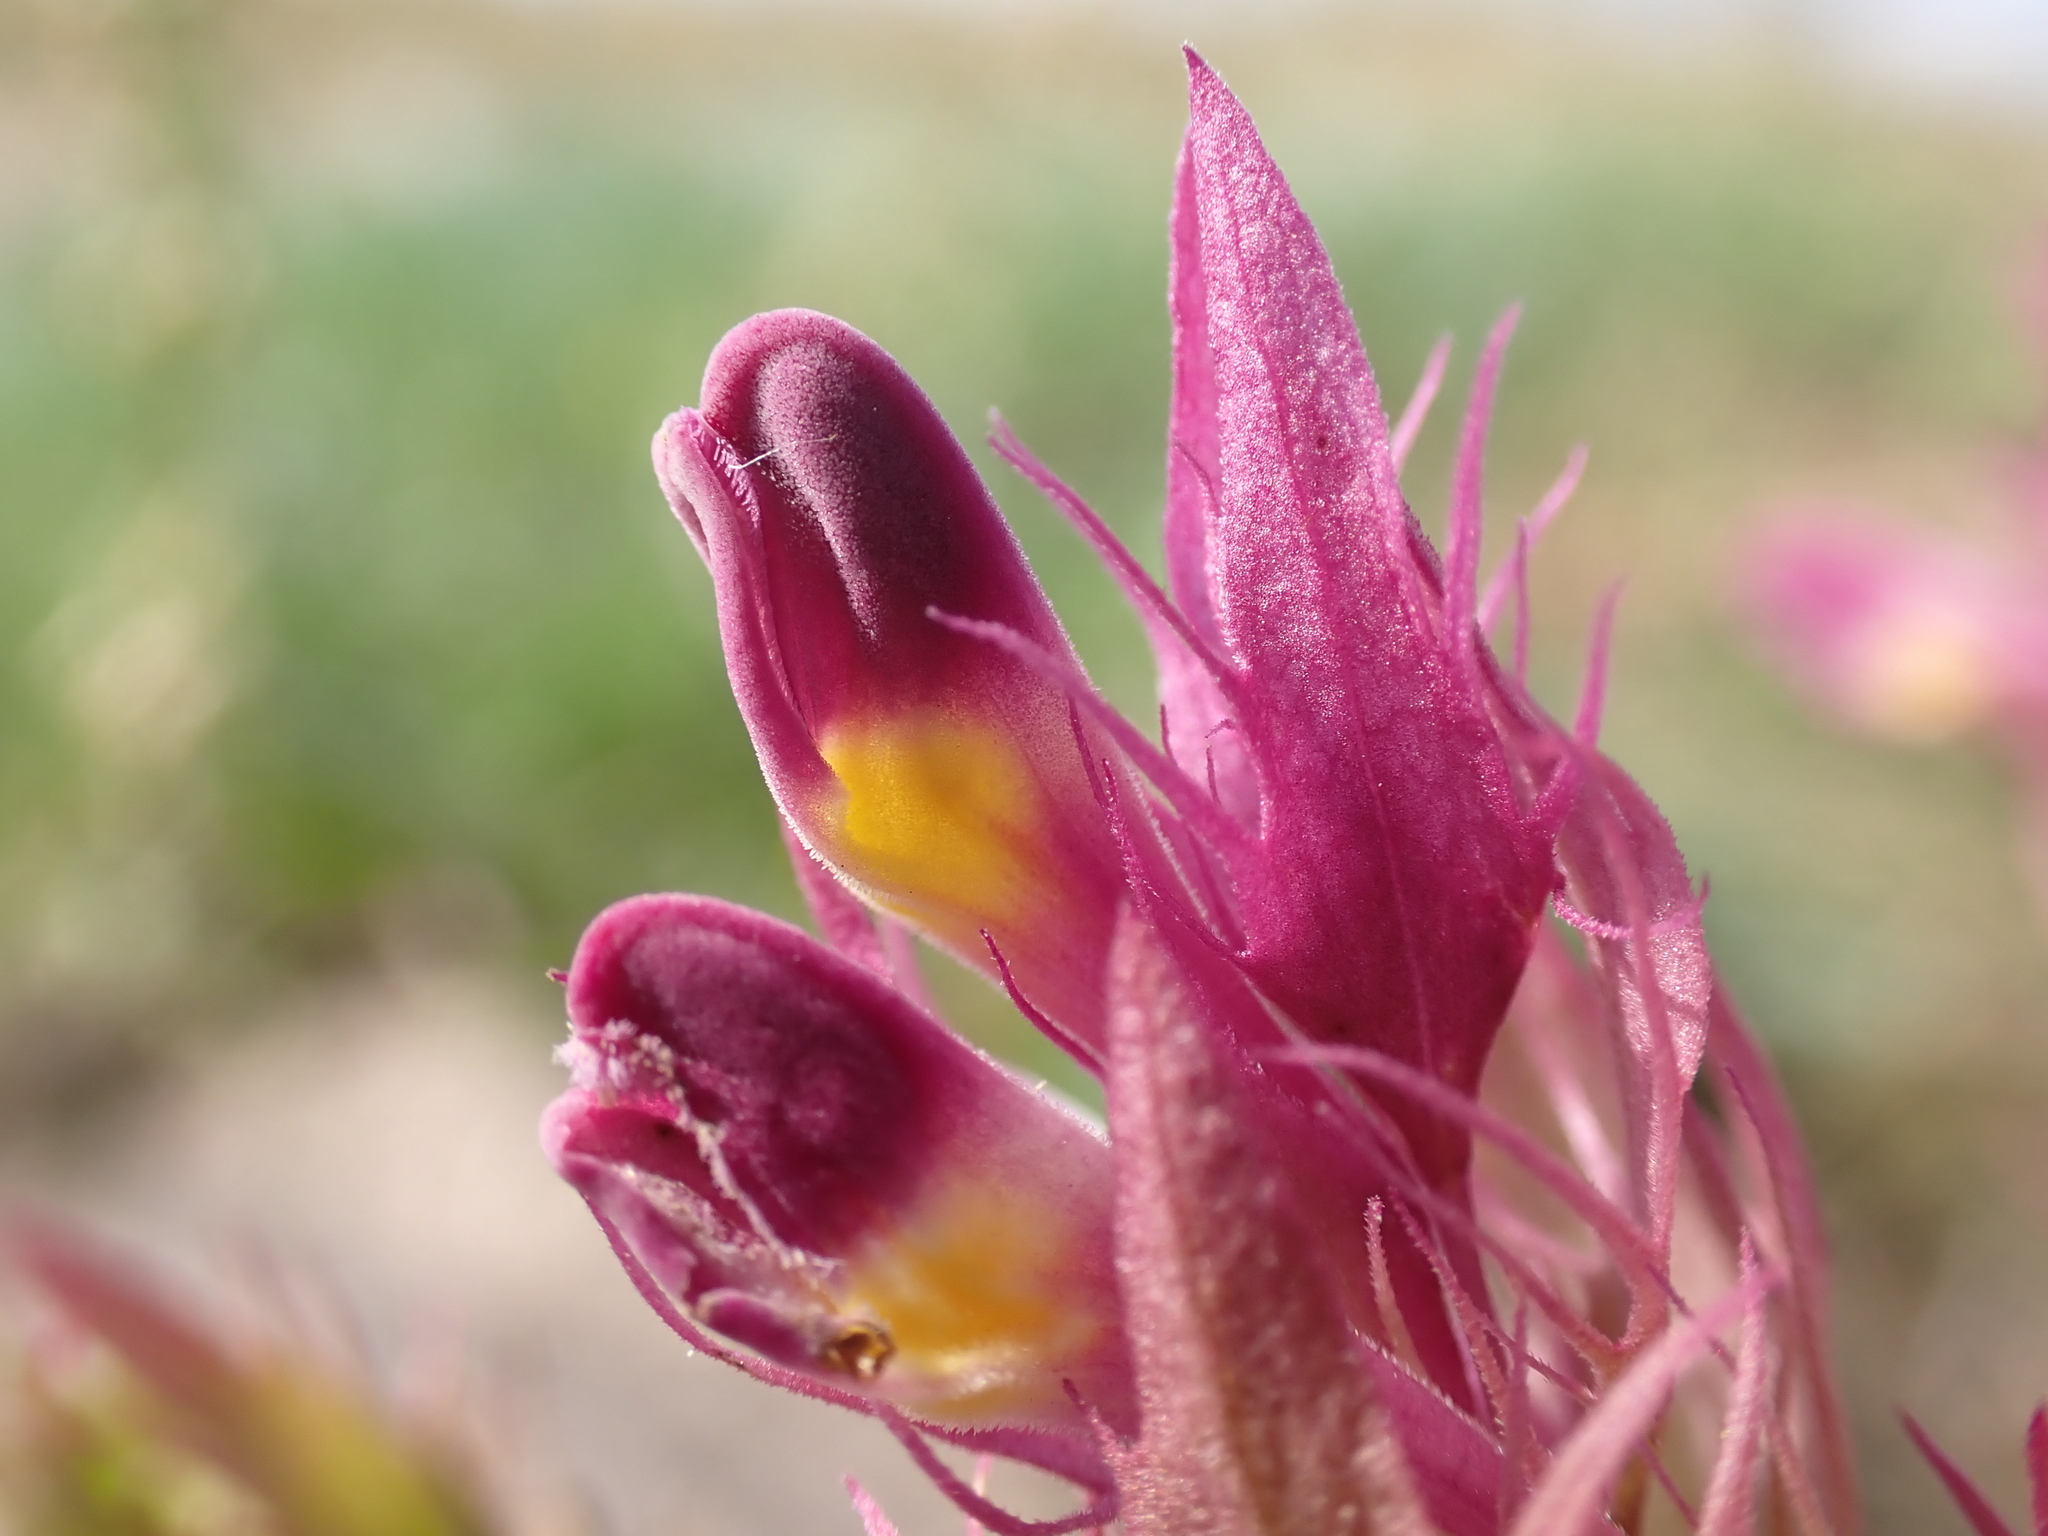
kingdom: Plantae
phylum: Tracheophyta
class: Magnoliopsida
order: Lamiales
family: Orobanchaceae
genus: Melampyrum
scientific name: Melampyrum arvense
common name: Field cow-wheat
